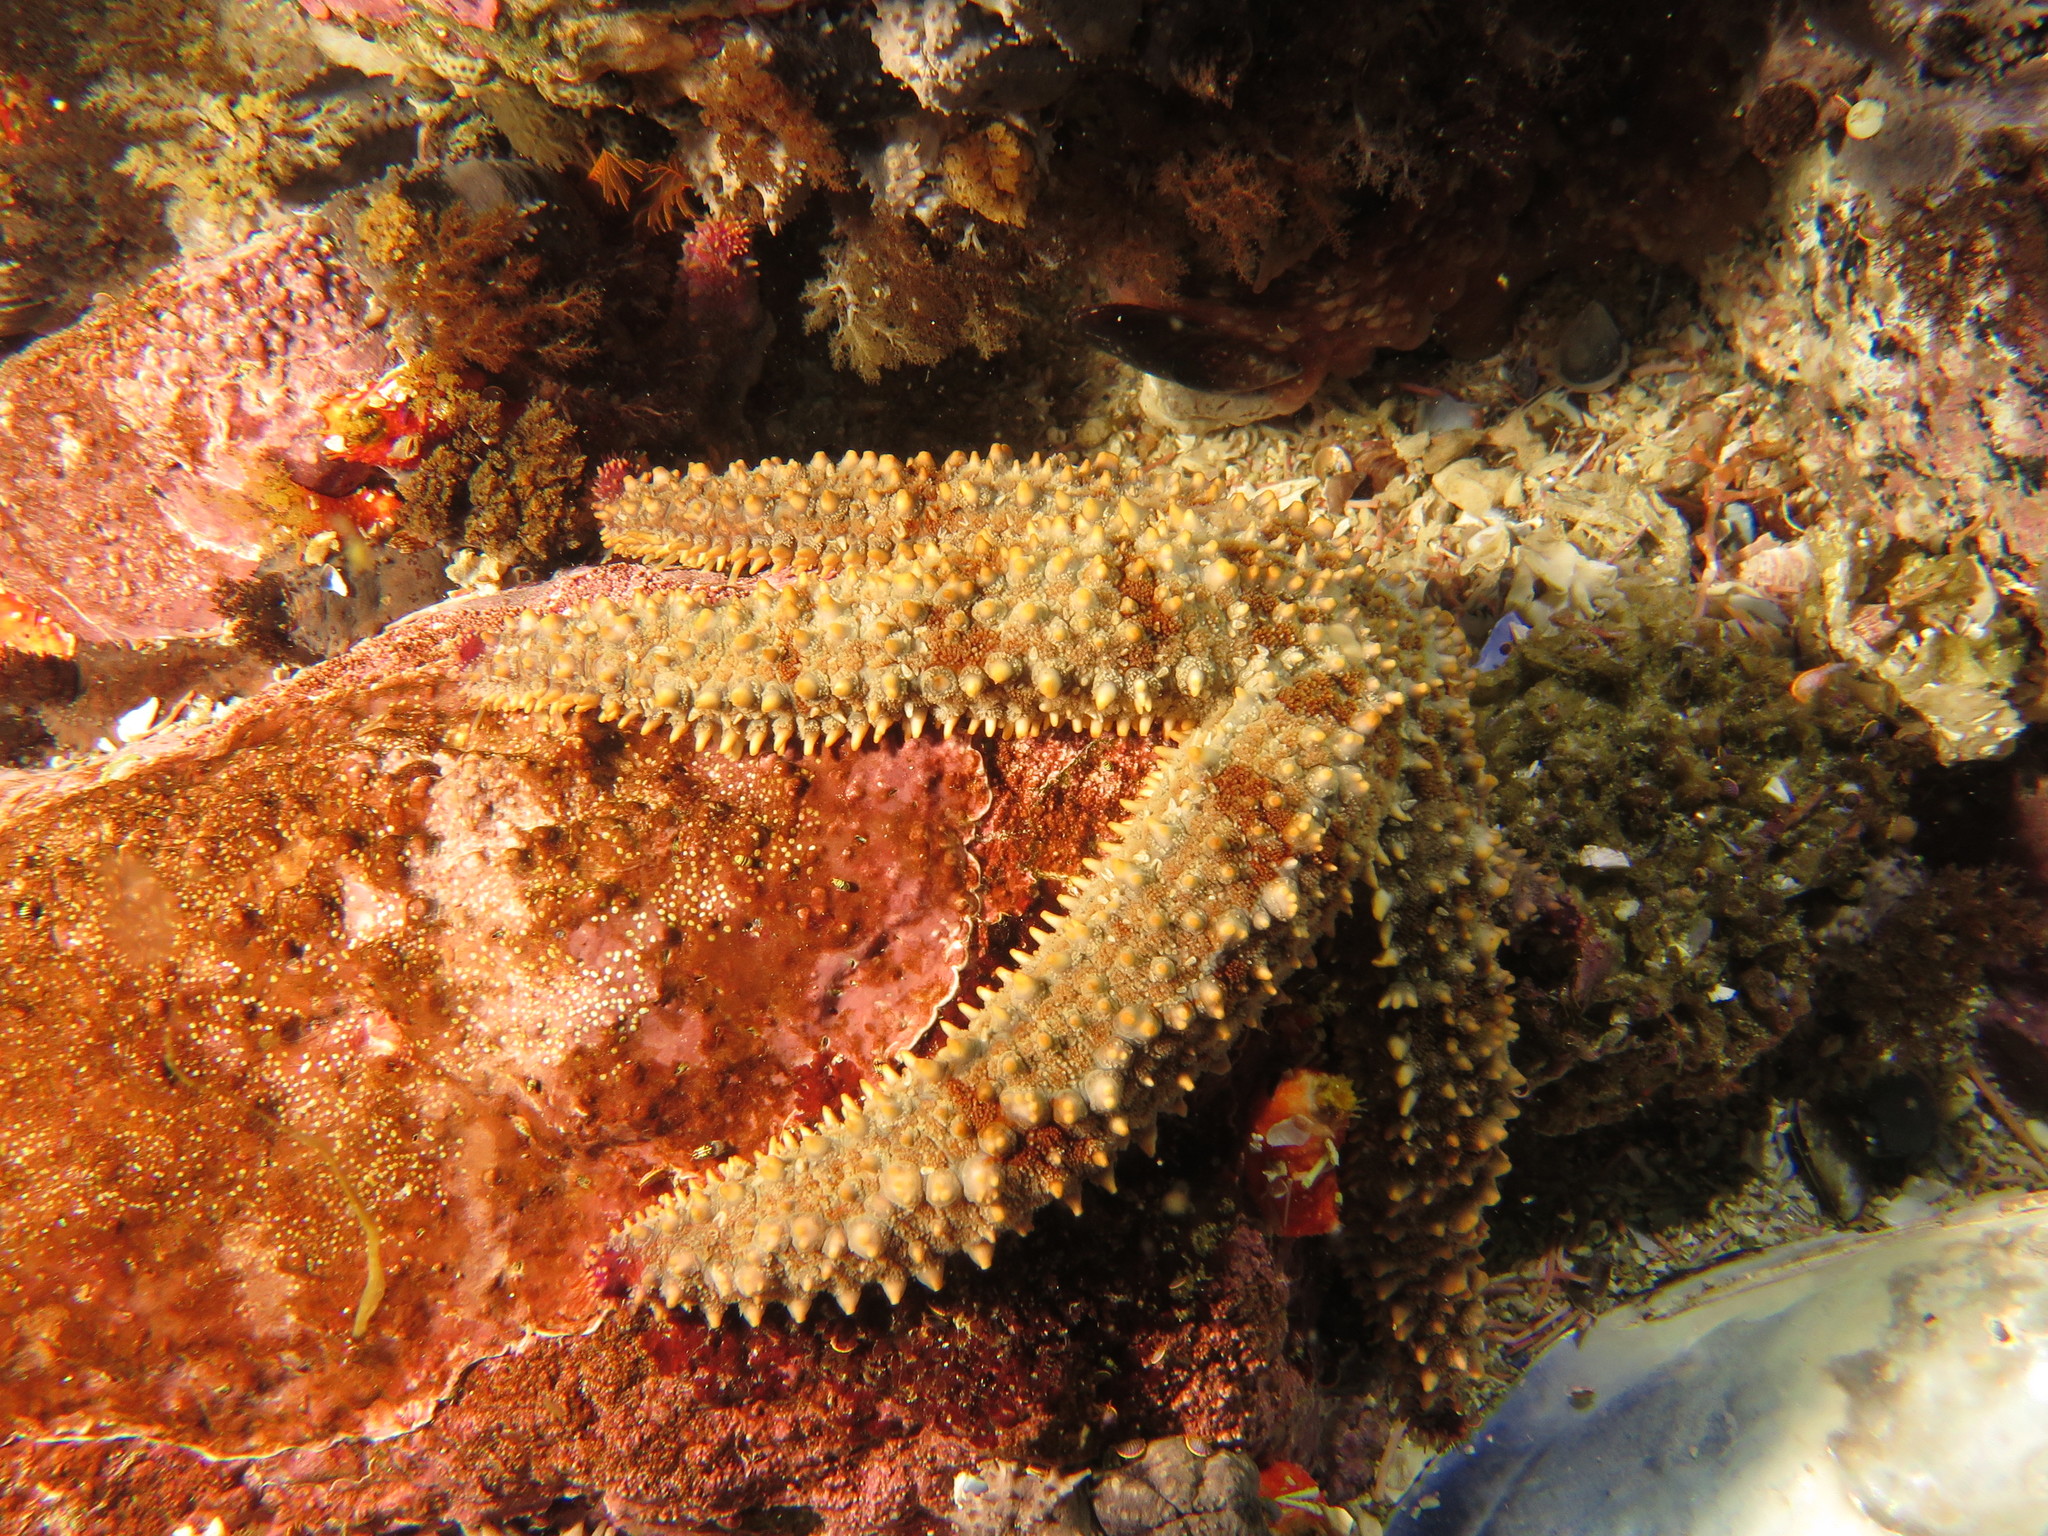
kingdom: Animalia
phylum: Echinodermata
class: Asteroidea
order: Forcipulatida
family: Asteriidae
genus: Marthasterias
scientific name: Marthasterias africana
